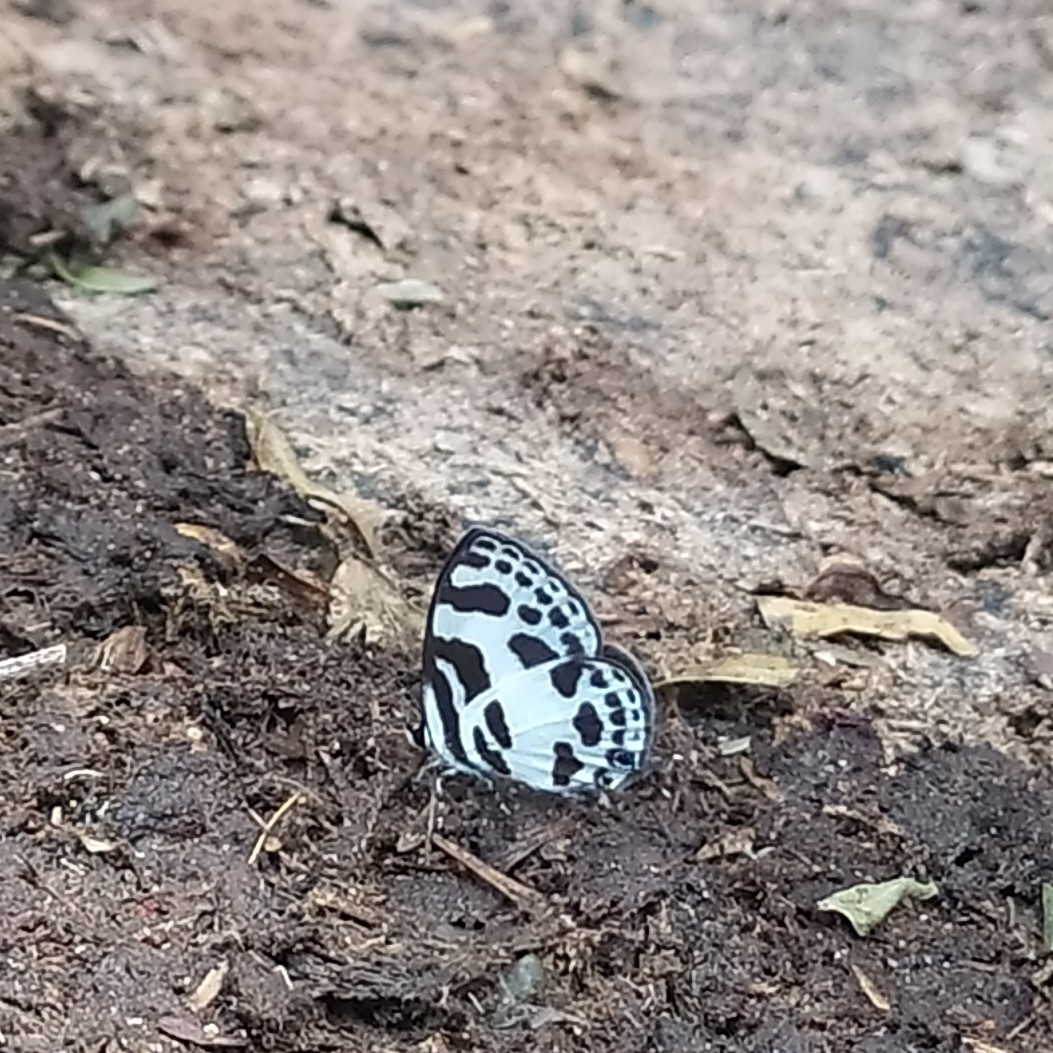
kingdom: Animalia
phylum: Arthropoda
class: Insecta
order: Lepidoptera
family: Lycaenidae
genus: Discolampa
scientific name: Discolampa ethion
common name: Banded blue pierrot
